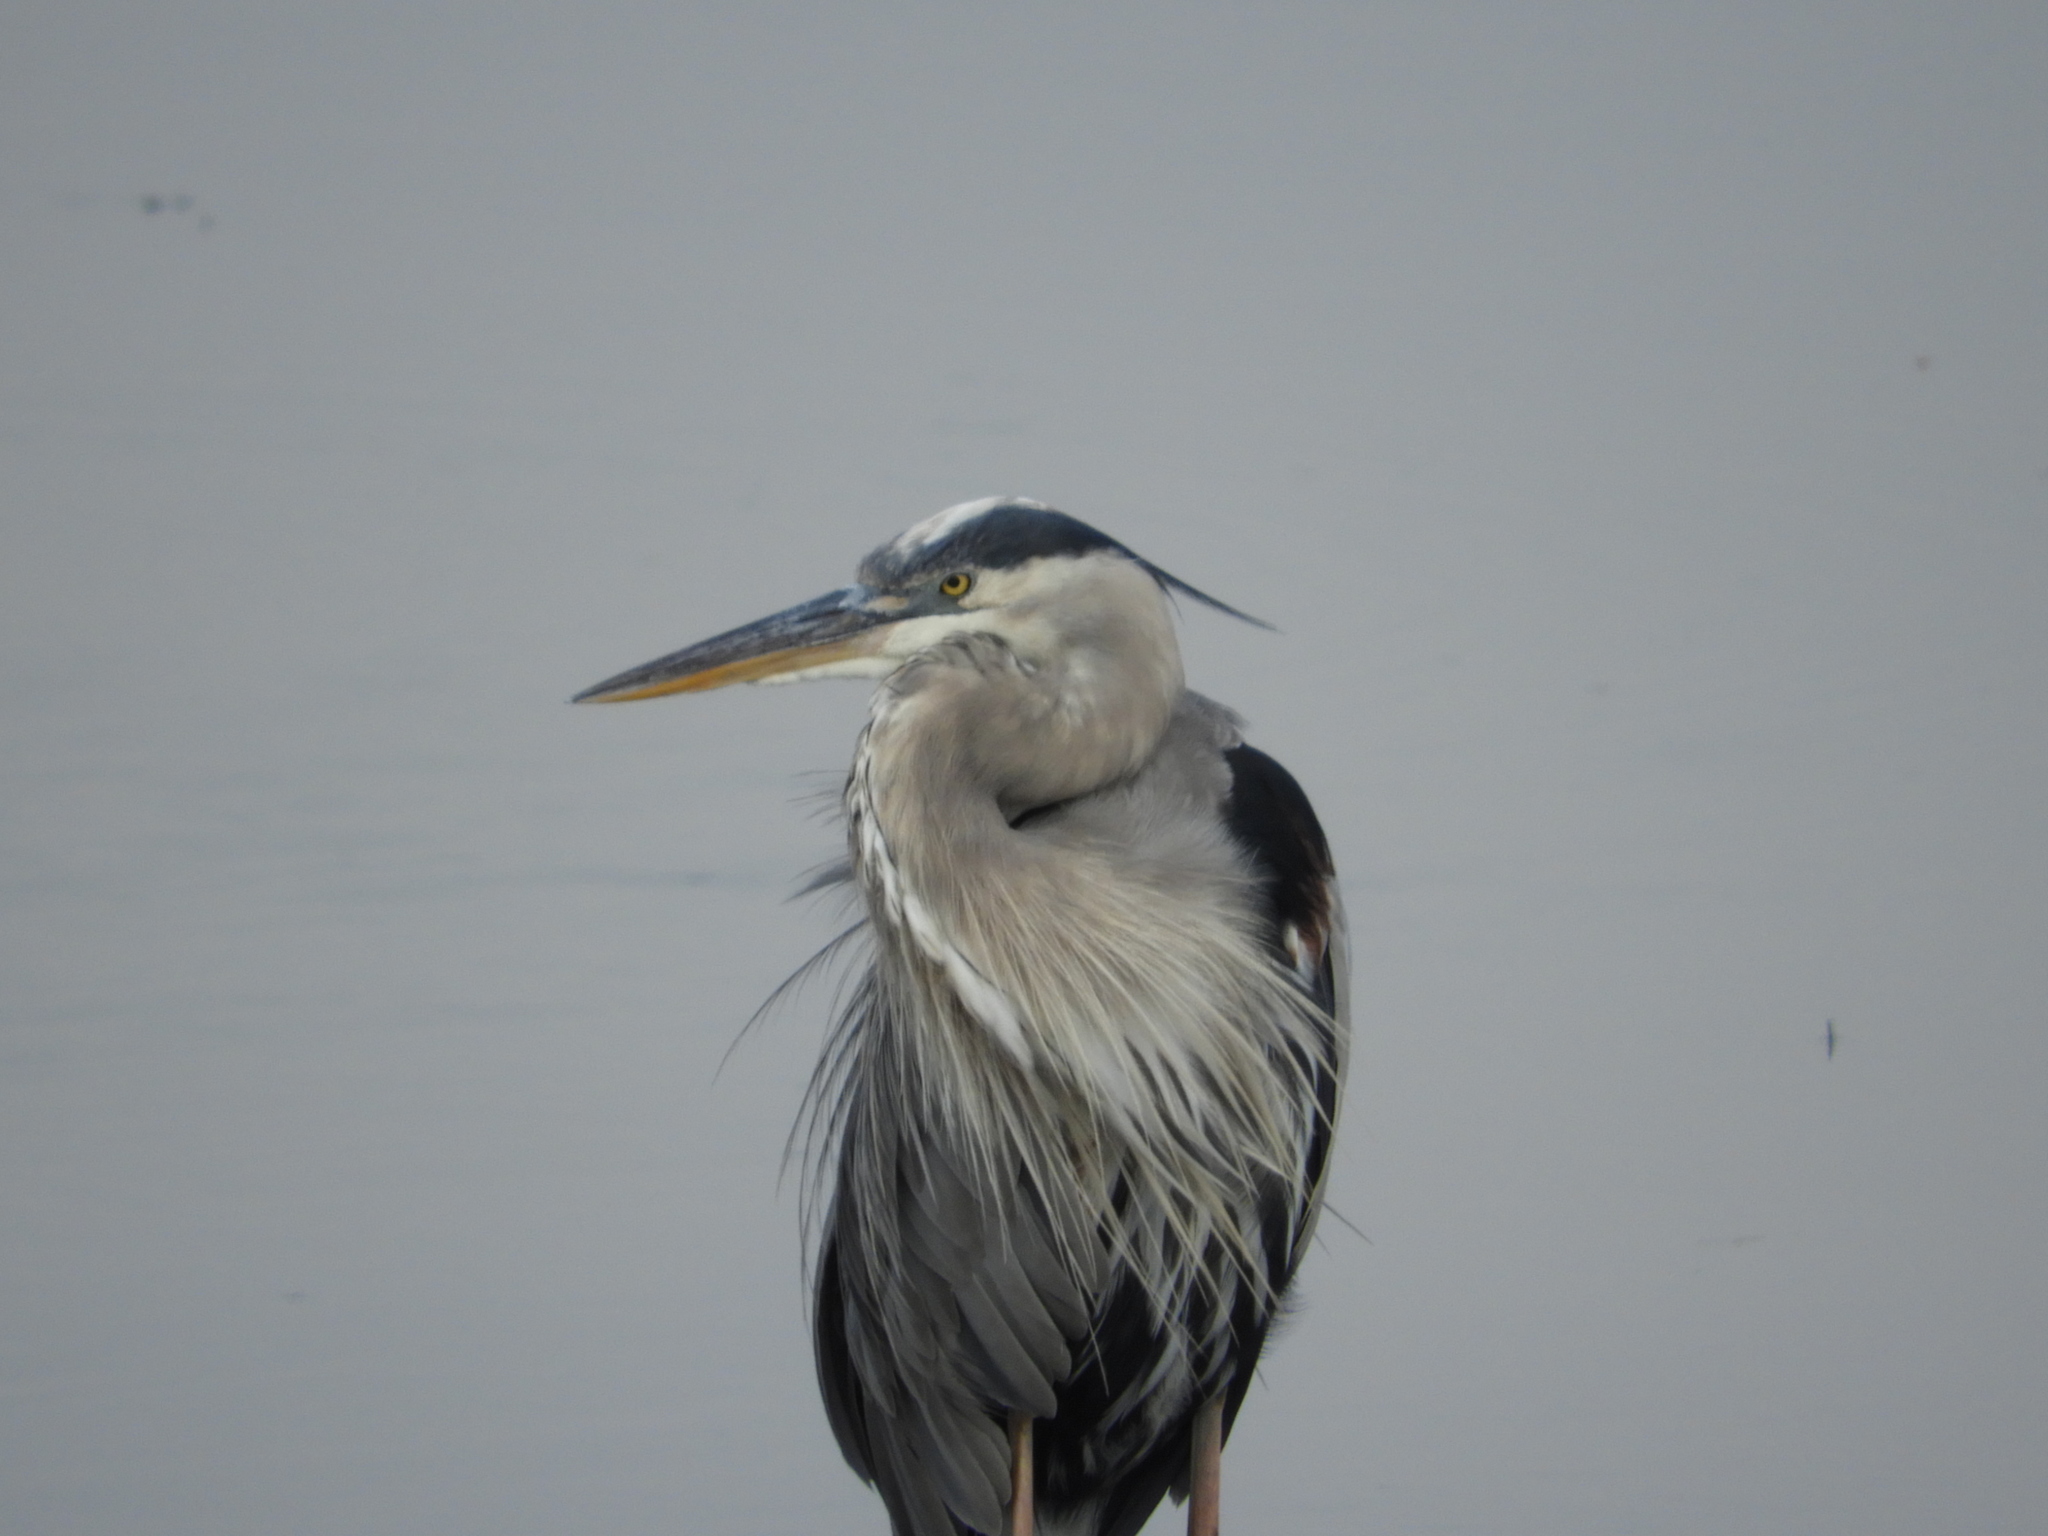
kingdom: Animalia
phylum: Chordata
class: Aves
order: Pelecaniformes
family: Ardeidae
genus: Ardea
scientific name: Ardea herodias
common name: Great blue heron
